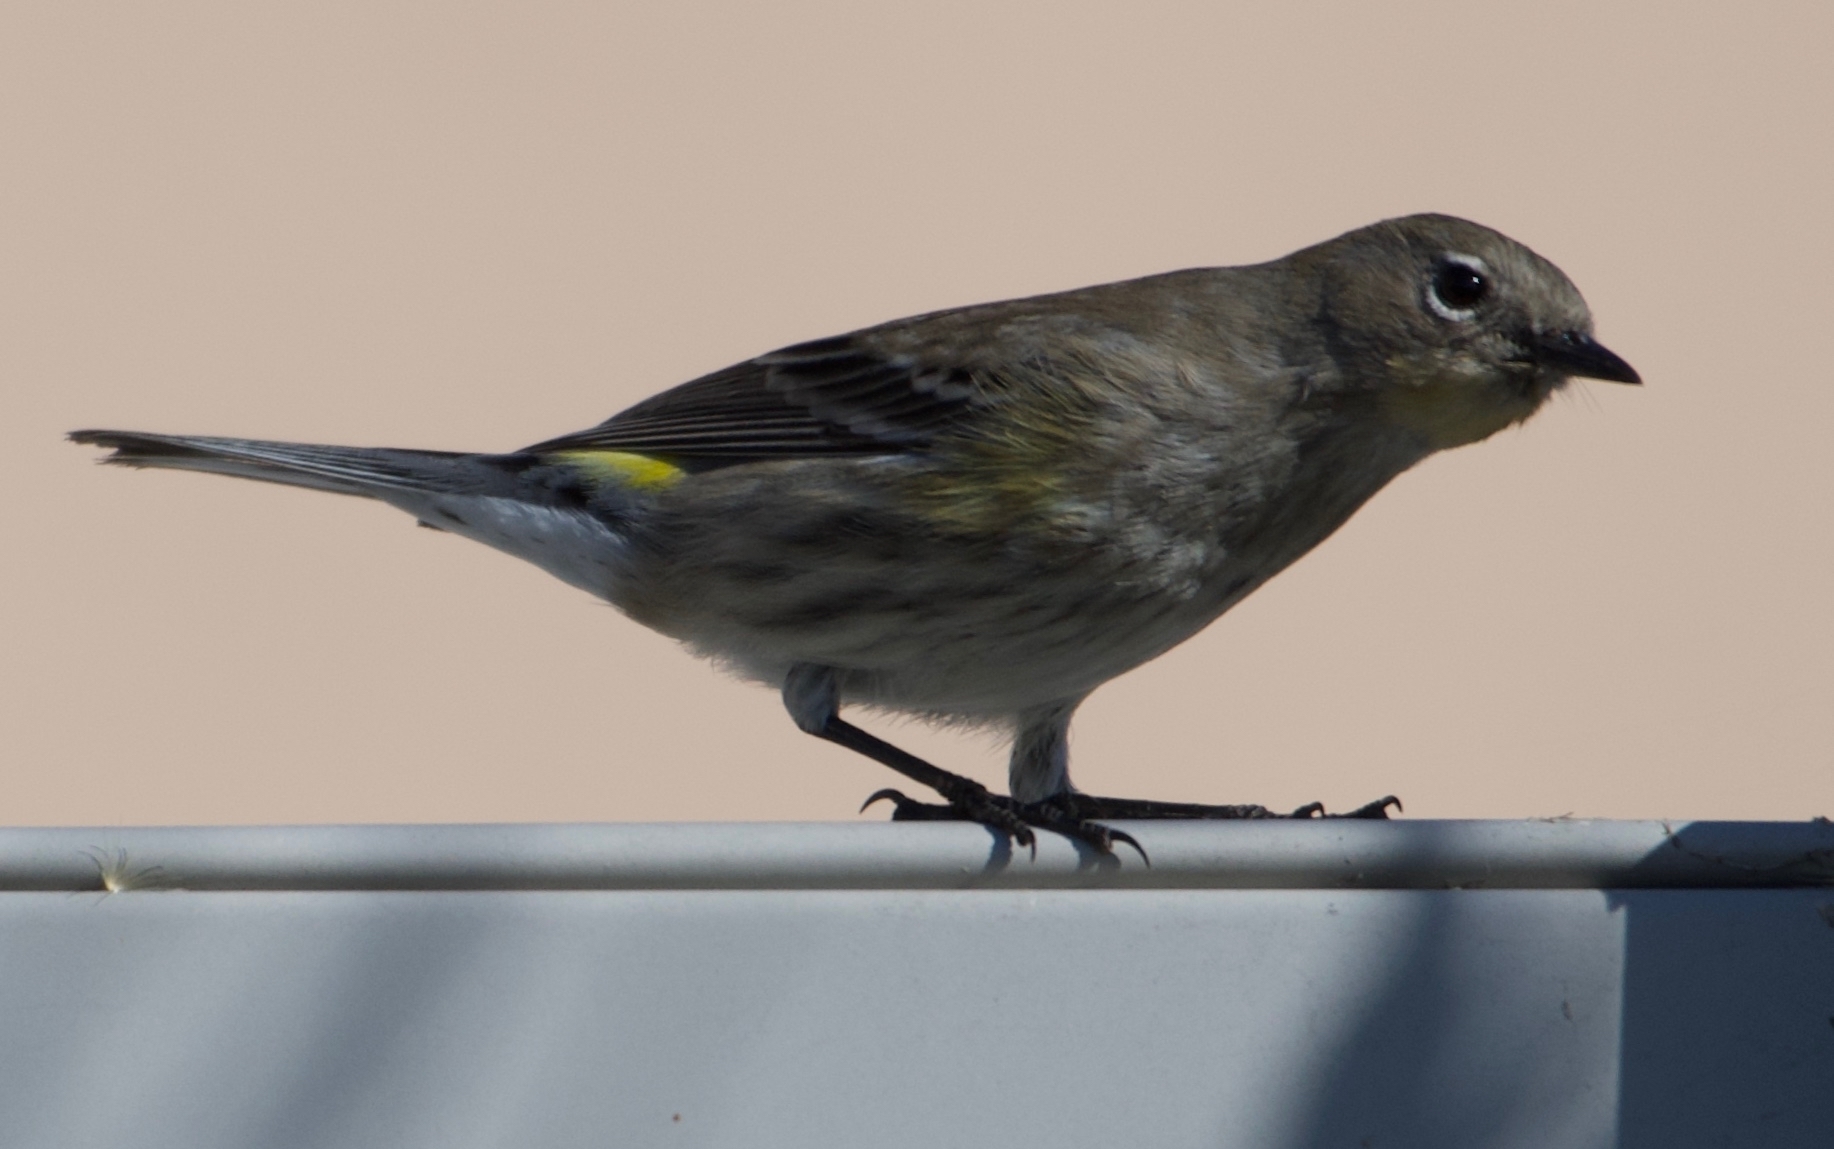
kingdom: Animalia
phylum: Chordata
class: Aves
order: Passeriformes
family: Parulidae
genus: Setophaga
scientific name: Setophaga coronata
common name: Myrtle warbler
